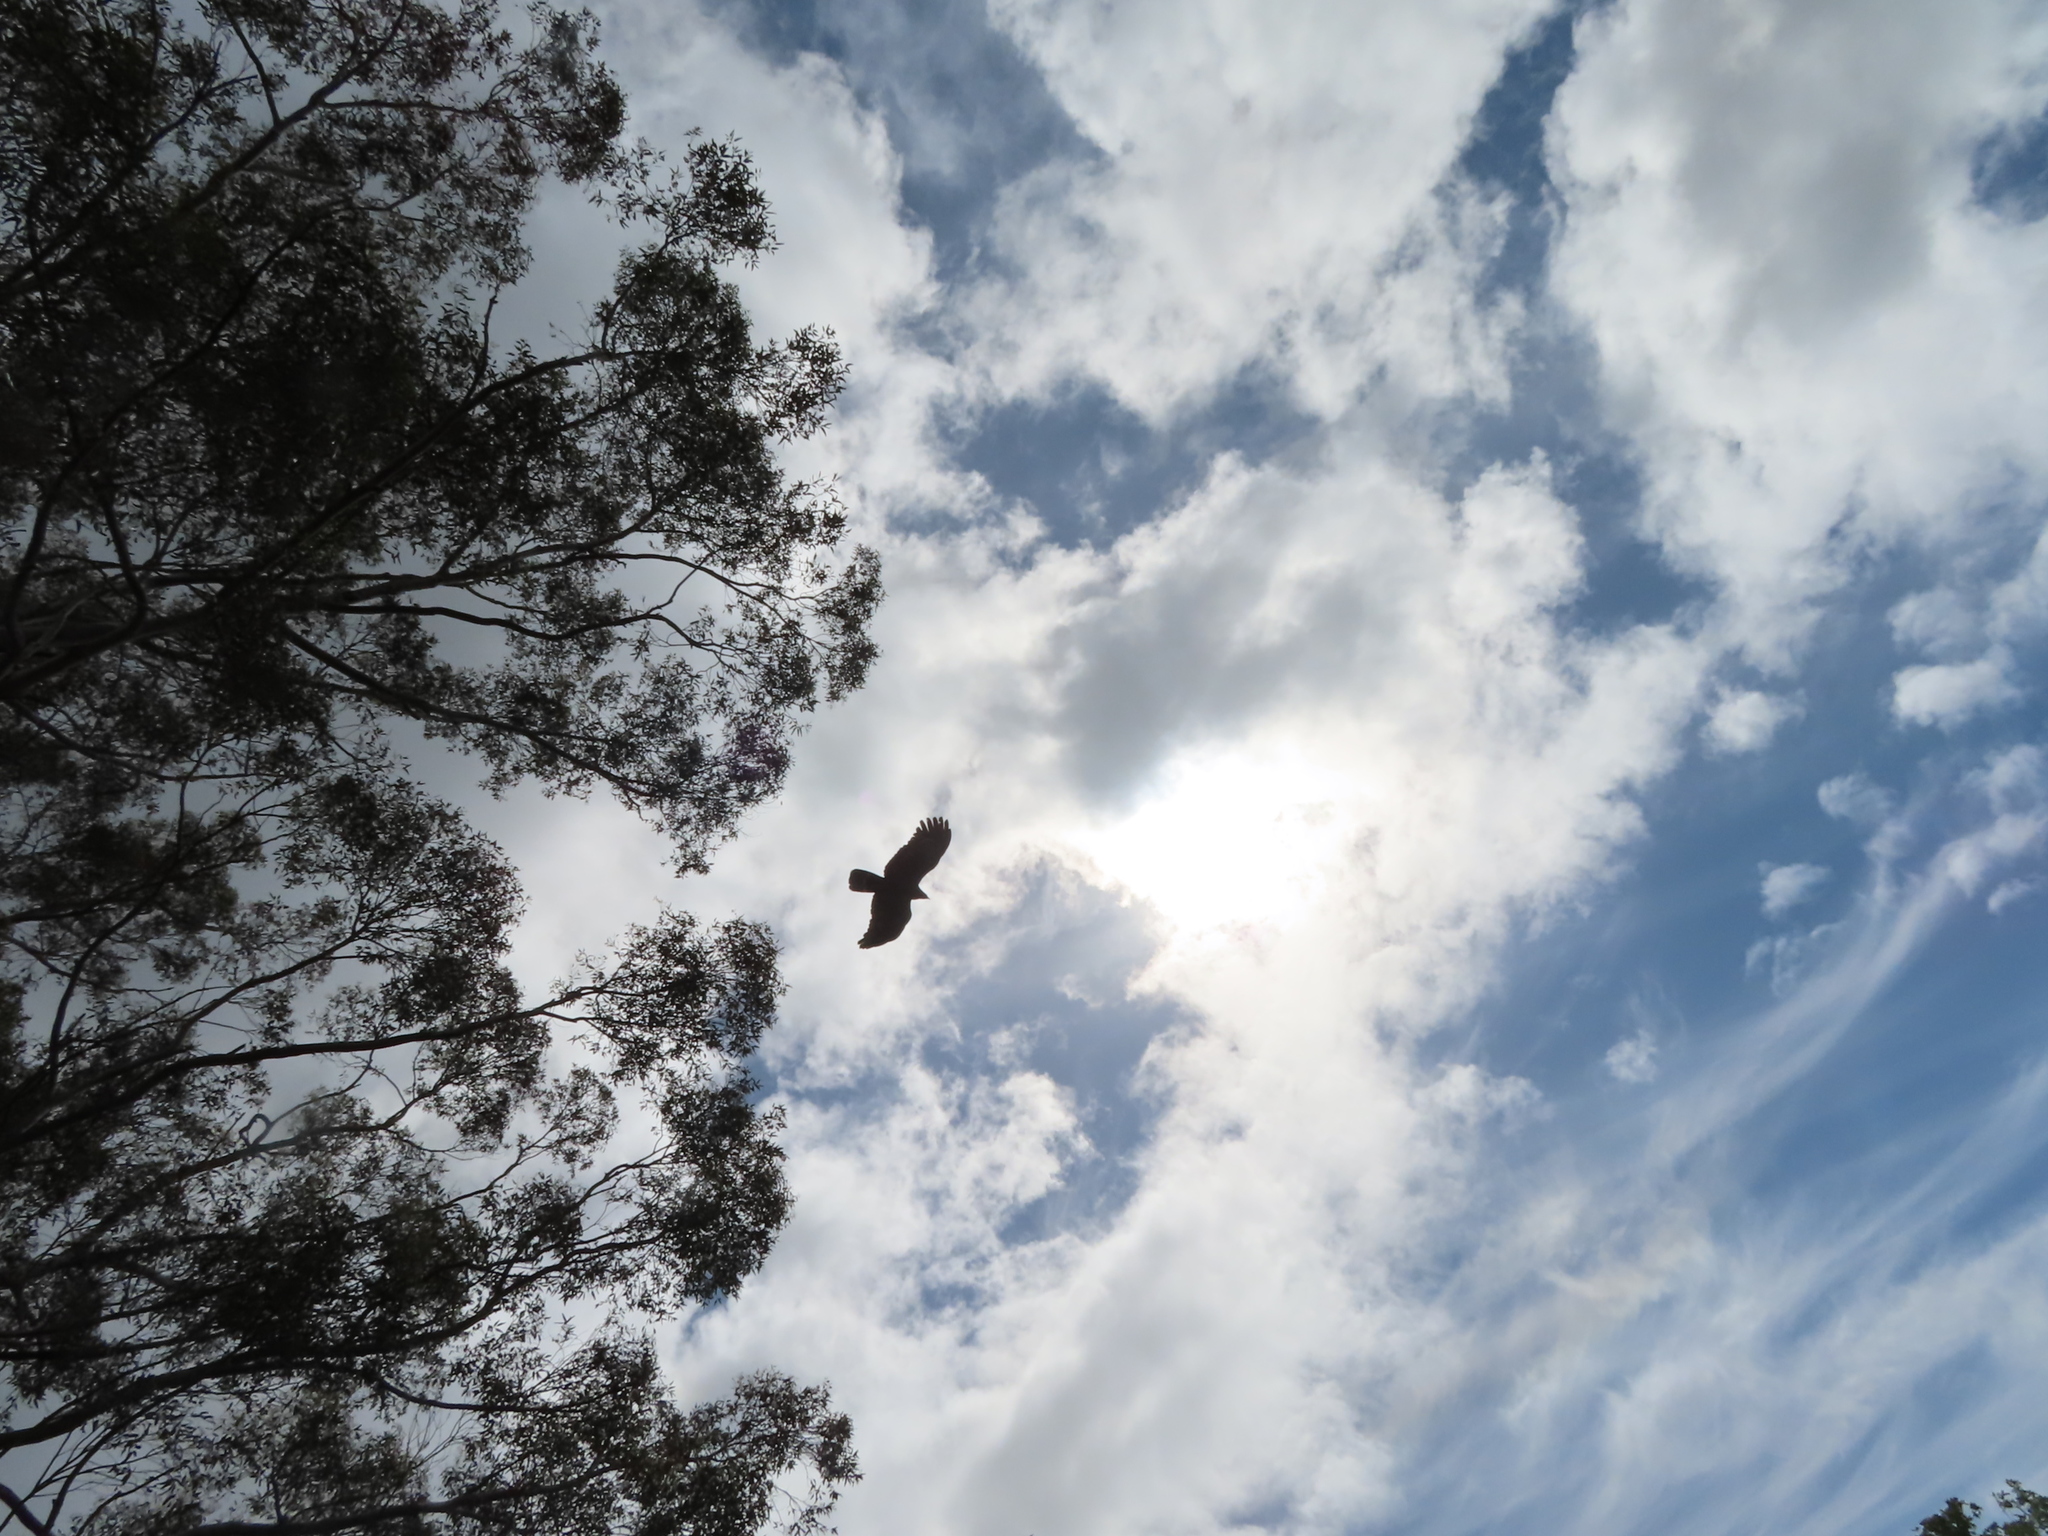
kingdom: Animalia
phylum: Chordata
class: Aves
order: Accipitriformes
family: Accipitridae
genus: Polyboroides
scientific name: Polyboroides typus
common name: African harrier-hawk
